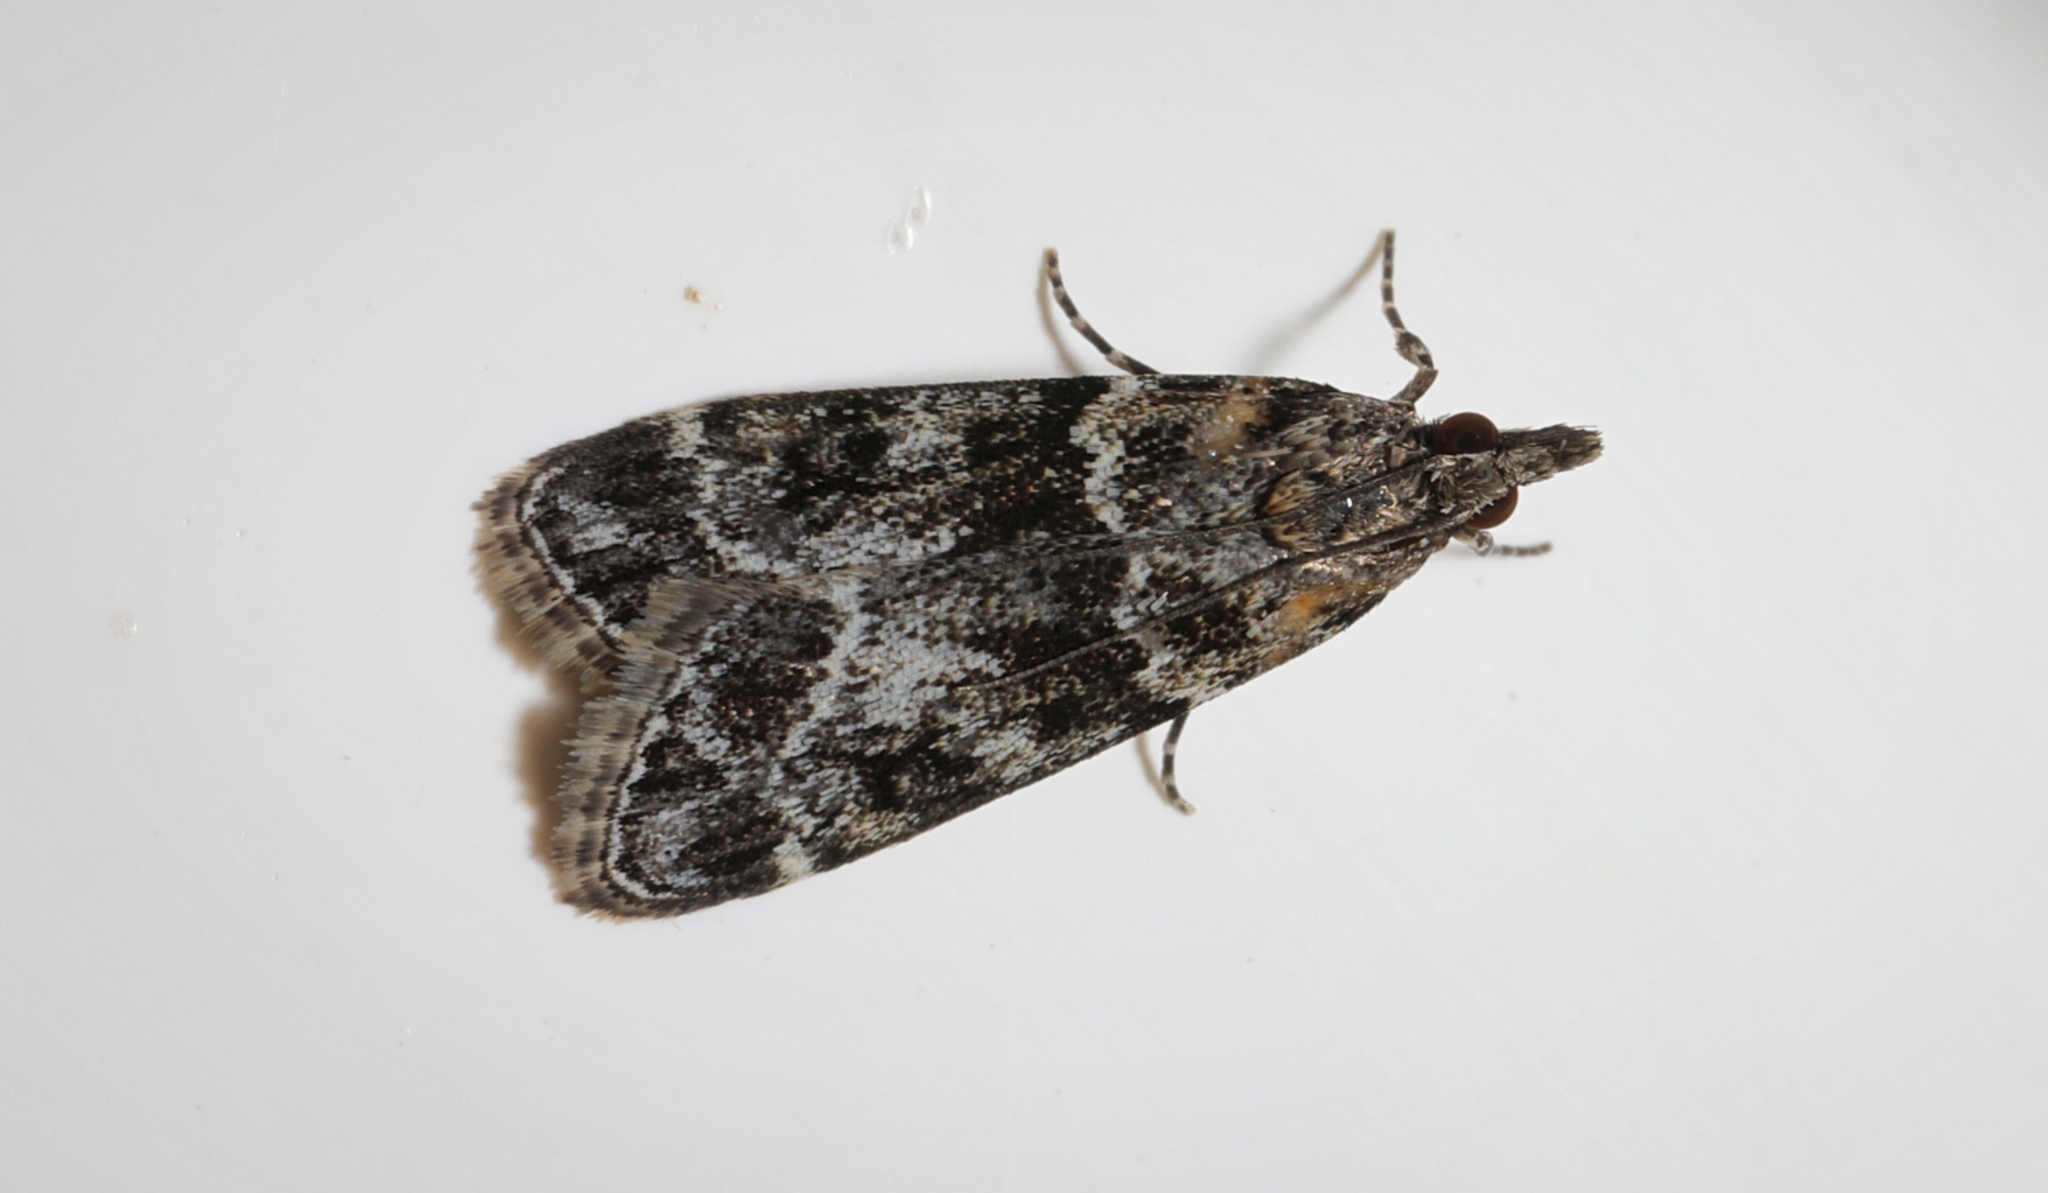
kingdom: Animalia
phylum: Arthropoda
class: Insecta
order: Lepidoptera
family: Crambidae
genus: Eudonia
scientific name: Eudonia mercurella
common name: Small grey
